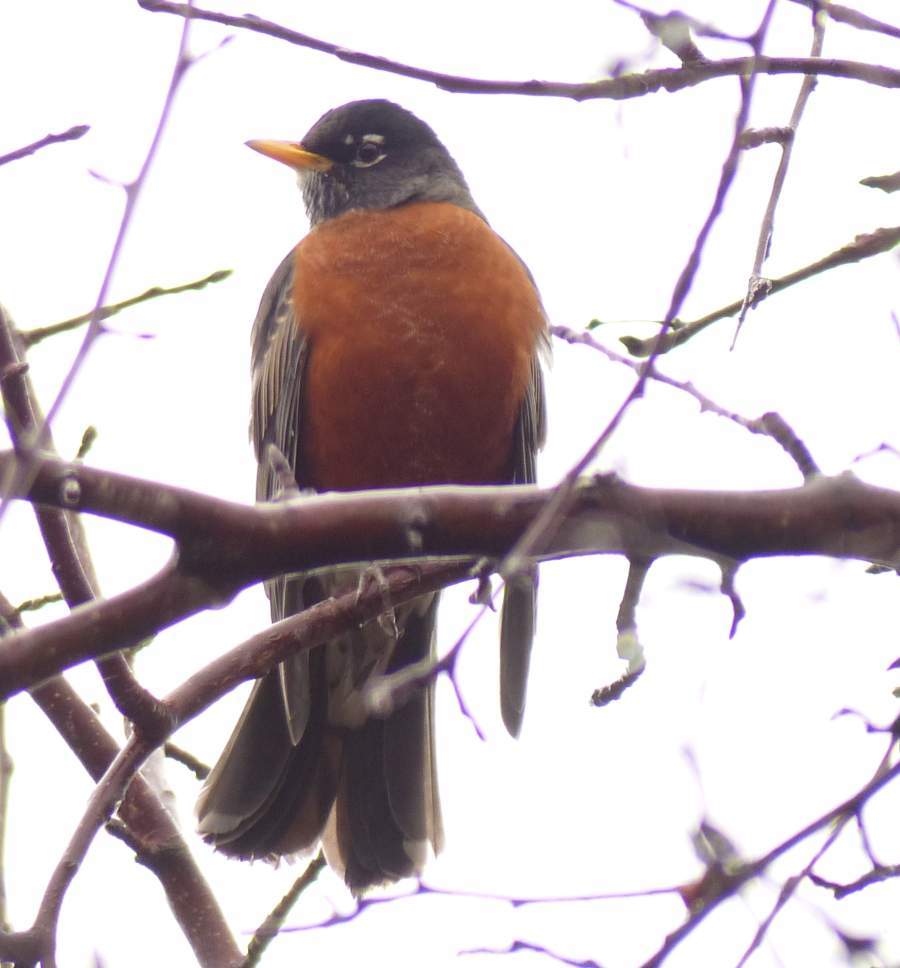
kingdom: Animalia
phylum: Chordata
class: Aves
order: Passeriformes
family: Turdidae
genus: Turdus
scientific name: Turdus migratorius
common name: American robin
